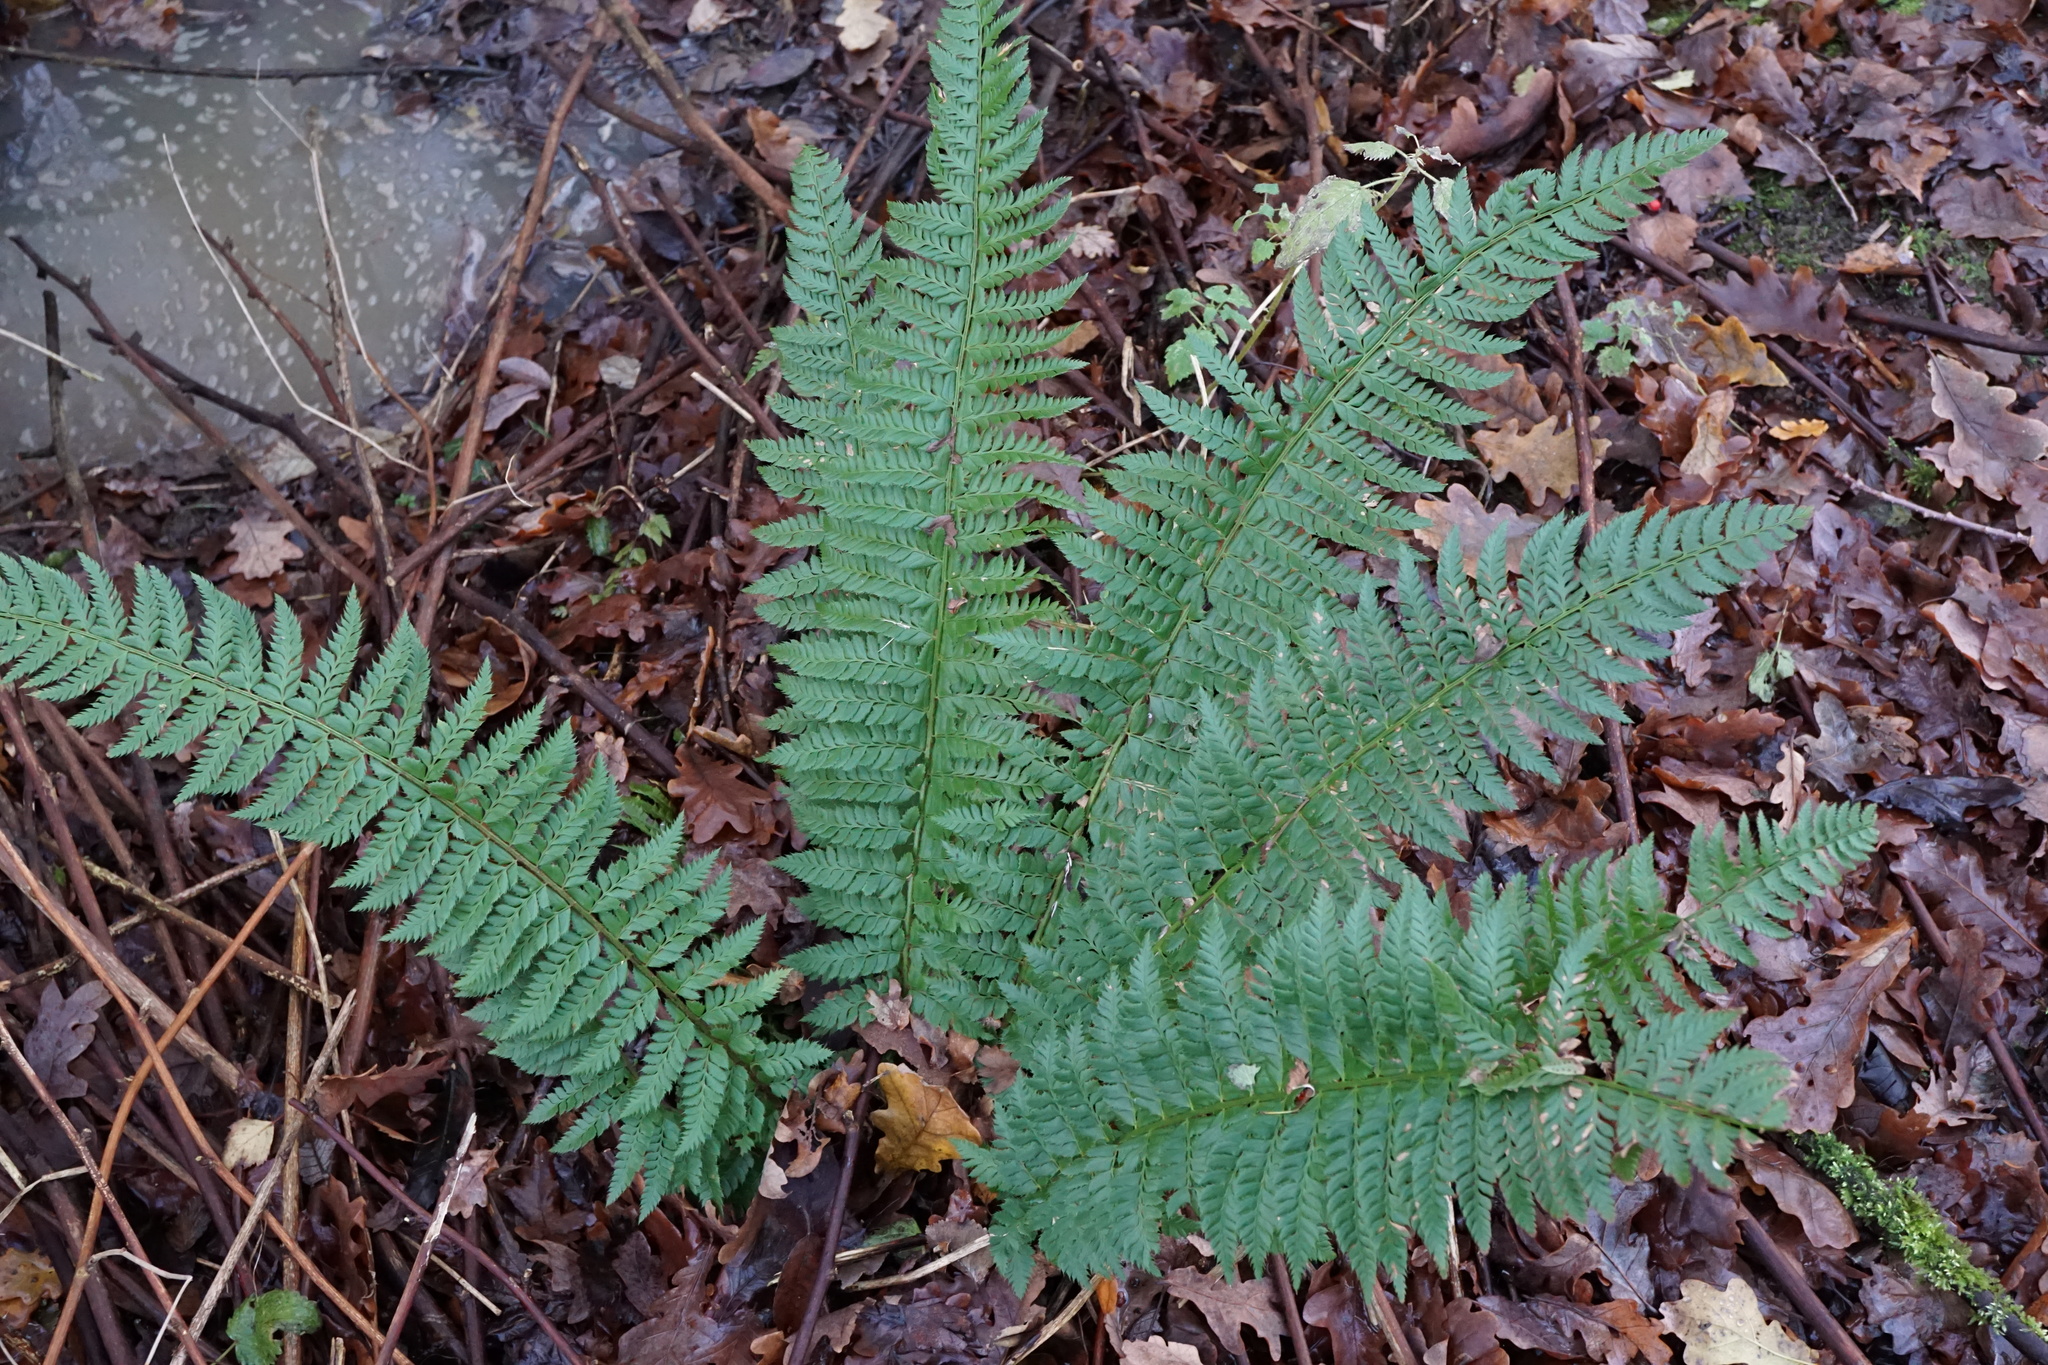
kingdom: Plantae
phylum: Tracheophyta
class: Polypodiopsida
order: Polypodiales
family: Dryopteridaceae
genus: Polystichum
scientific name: Polystichum aculeatum
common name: Hard shield-fern
